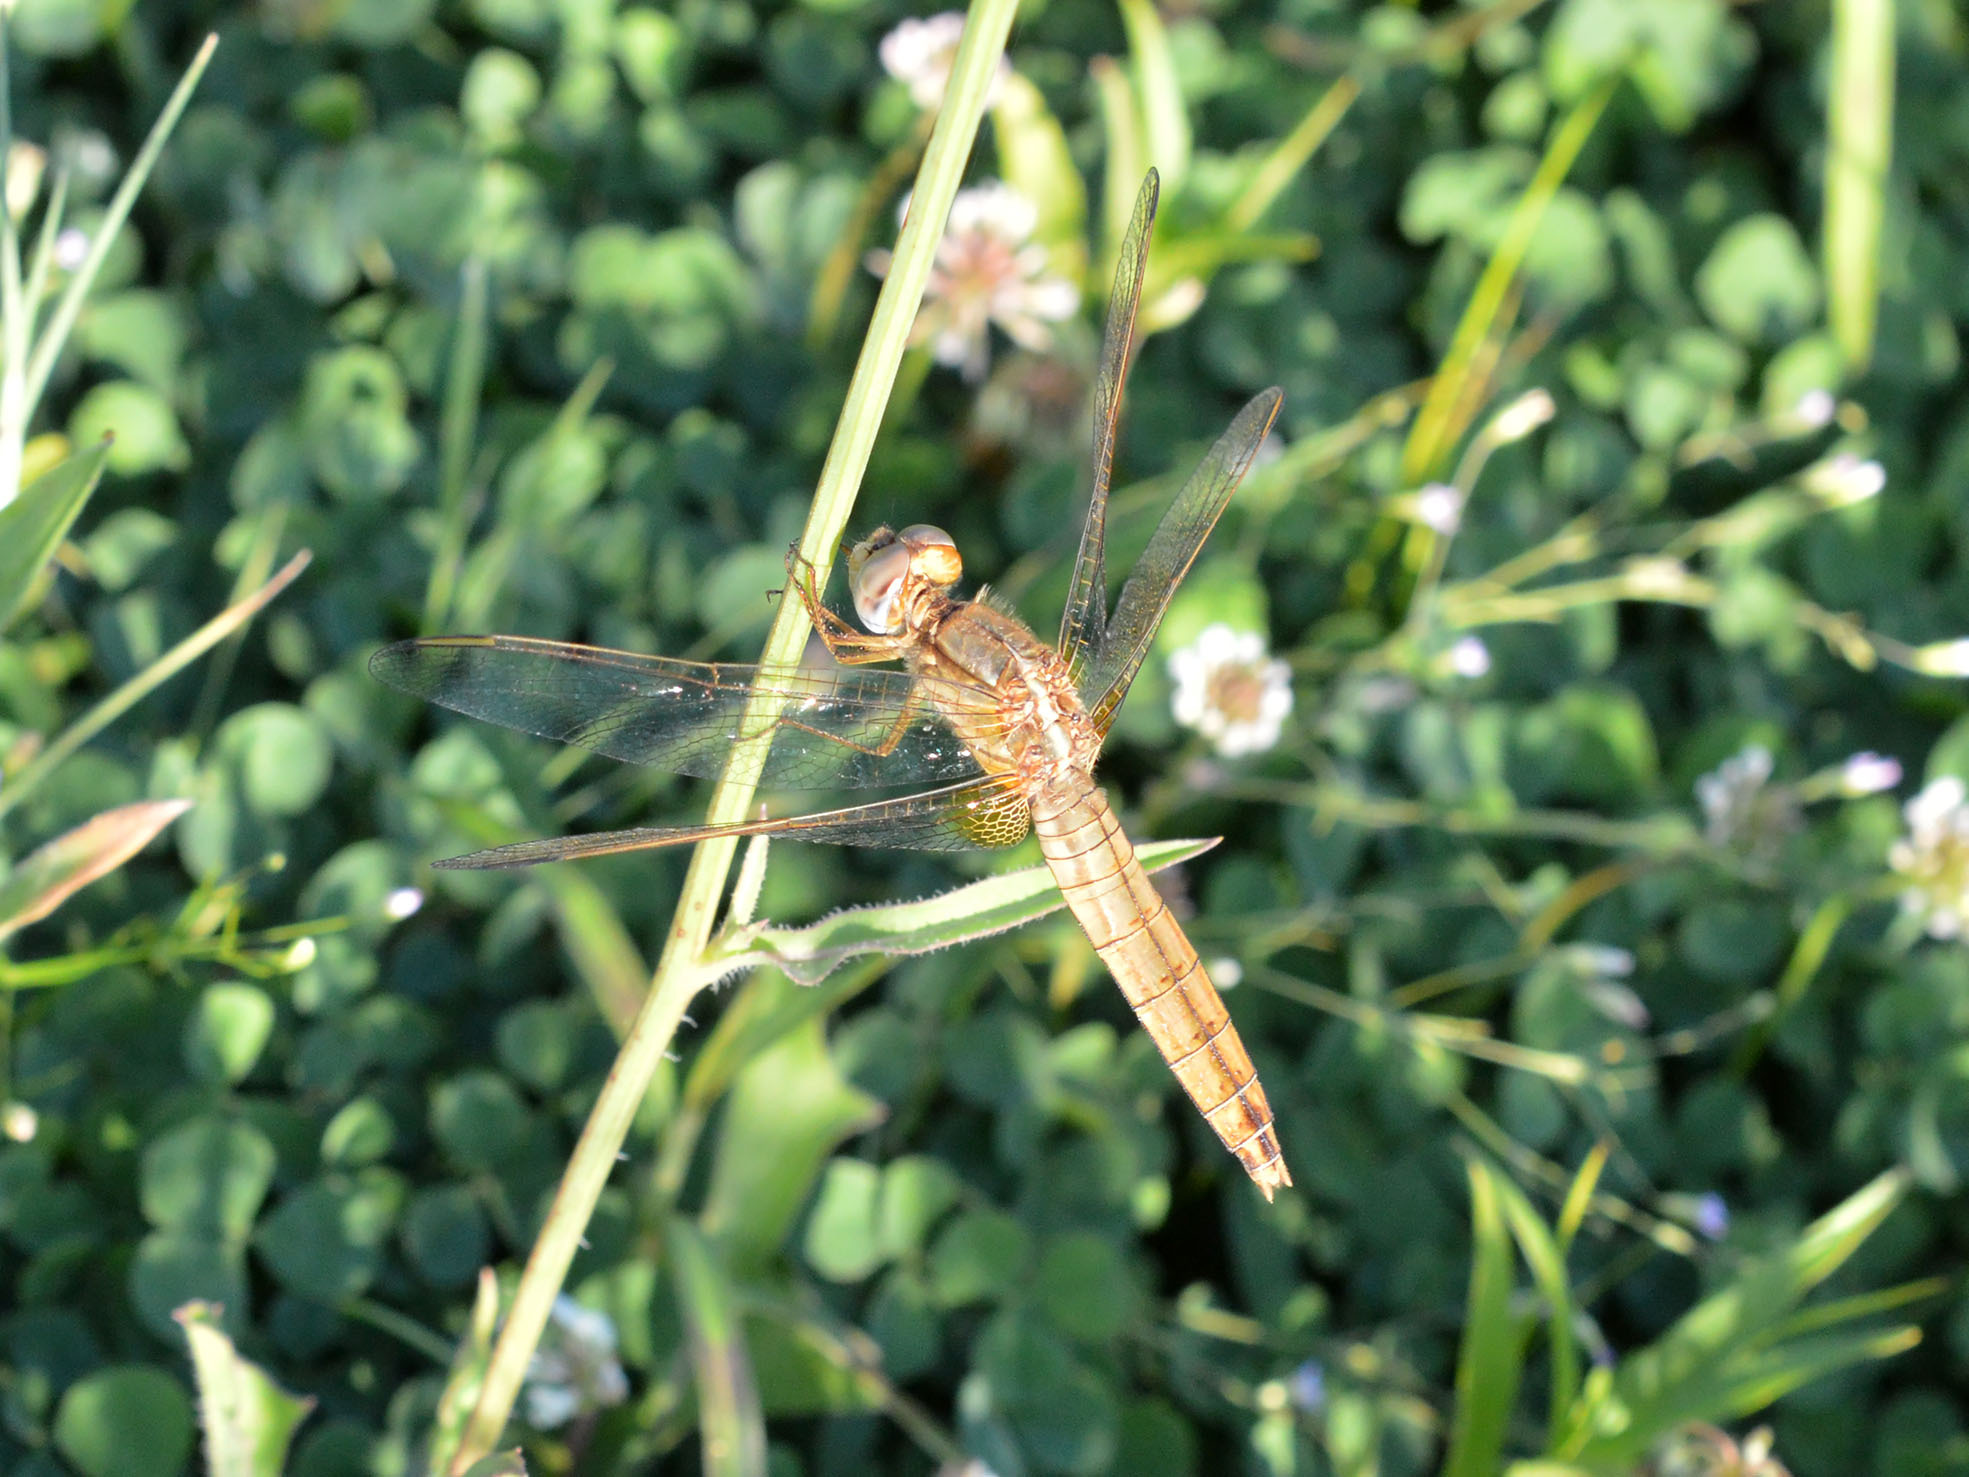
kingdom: Animalia
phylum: Arthropoda
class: Insecta
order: Odonata
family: Libellulidae
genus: Crocothemis
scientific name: Crocothemis erythraea
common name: Scarlet dragonfly
